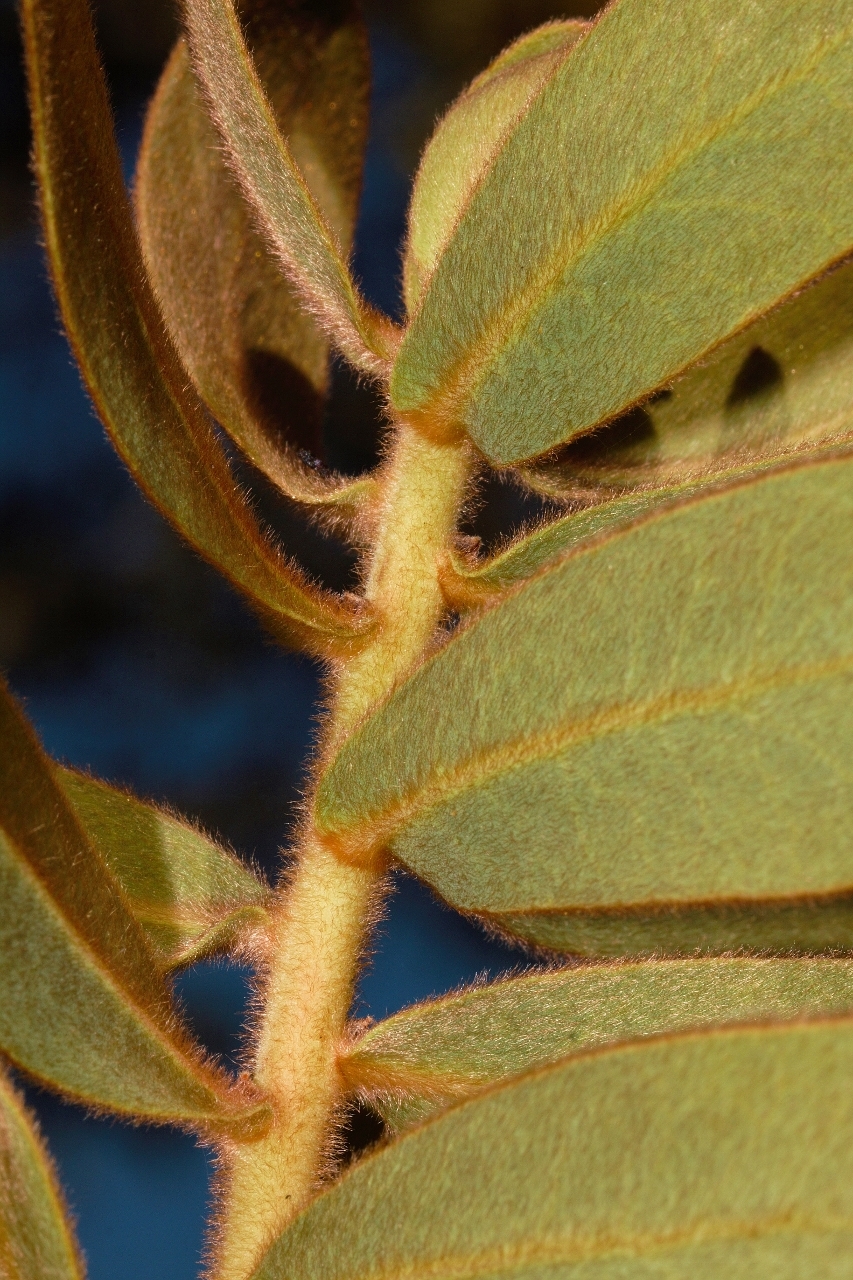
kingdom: Plantae
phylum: Tracheophyta
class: Magnoliopsida
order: Proteales
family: Proteaceae
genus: Protea
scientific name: Protea welwitschii
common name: Cluster-head protea
